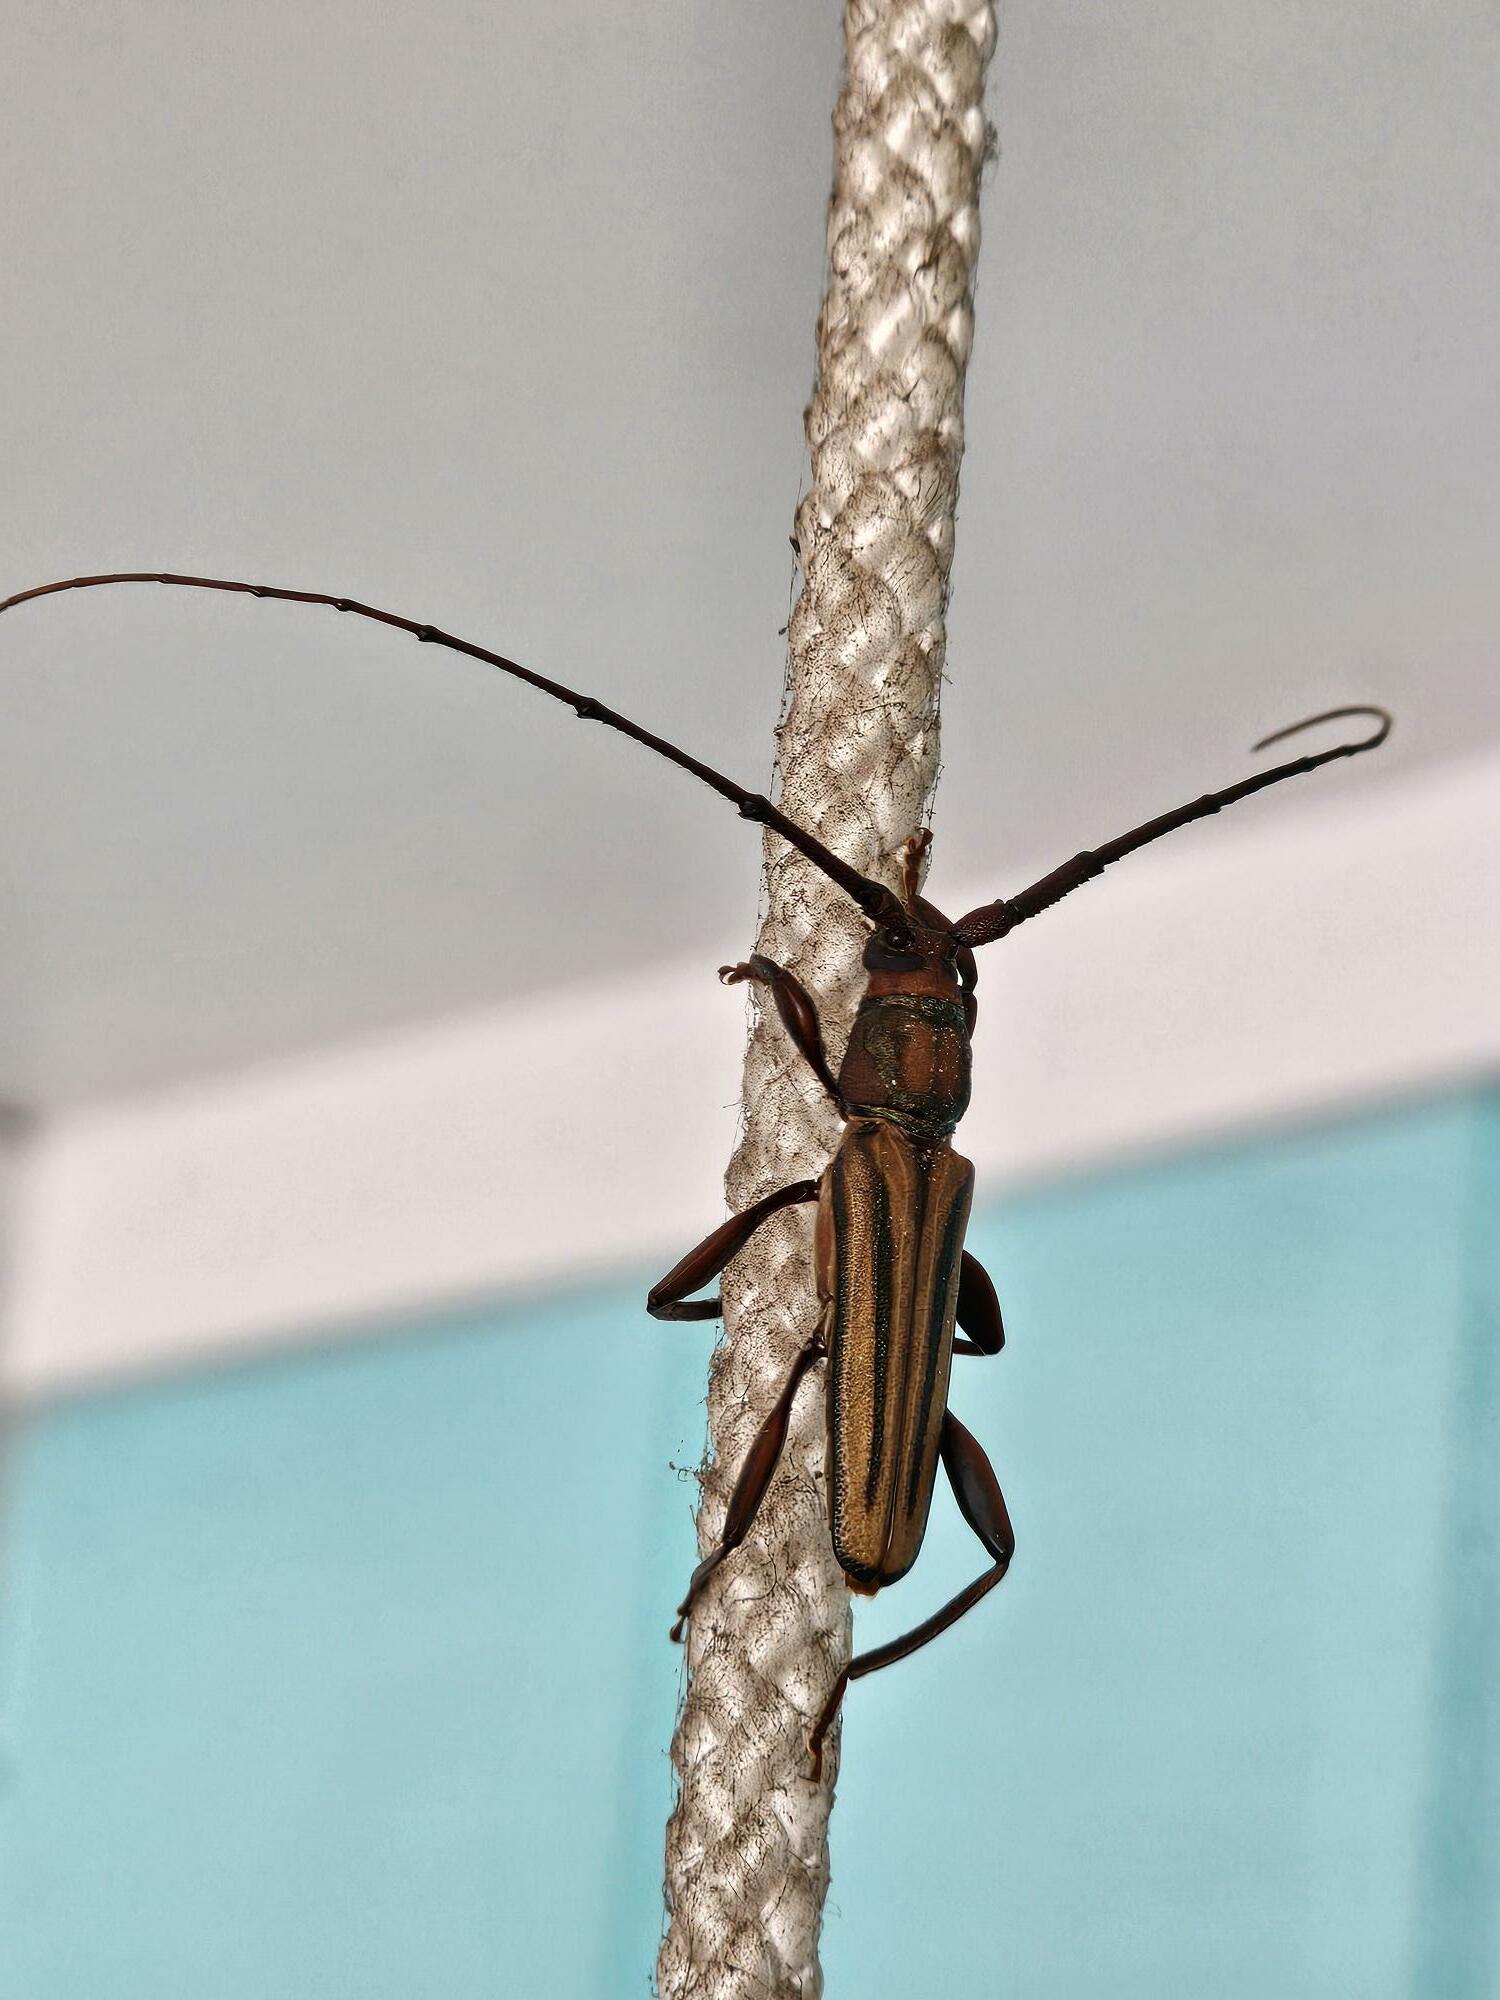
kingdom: Animalia
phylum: Arthropoda
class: Insecta
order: Coleoptera
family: Cerambycidae
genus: Xystrocera
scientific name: Xystrocera globosa
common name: Peach-tree longhorn
